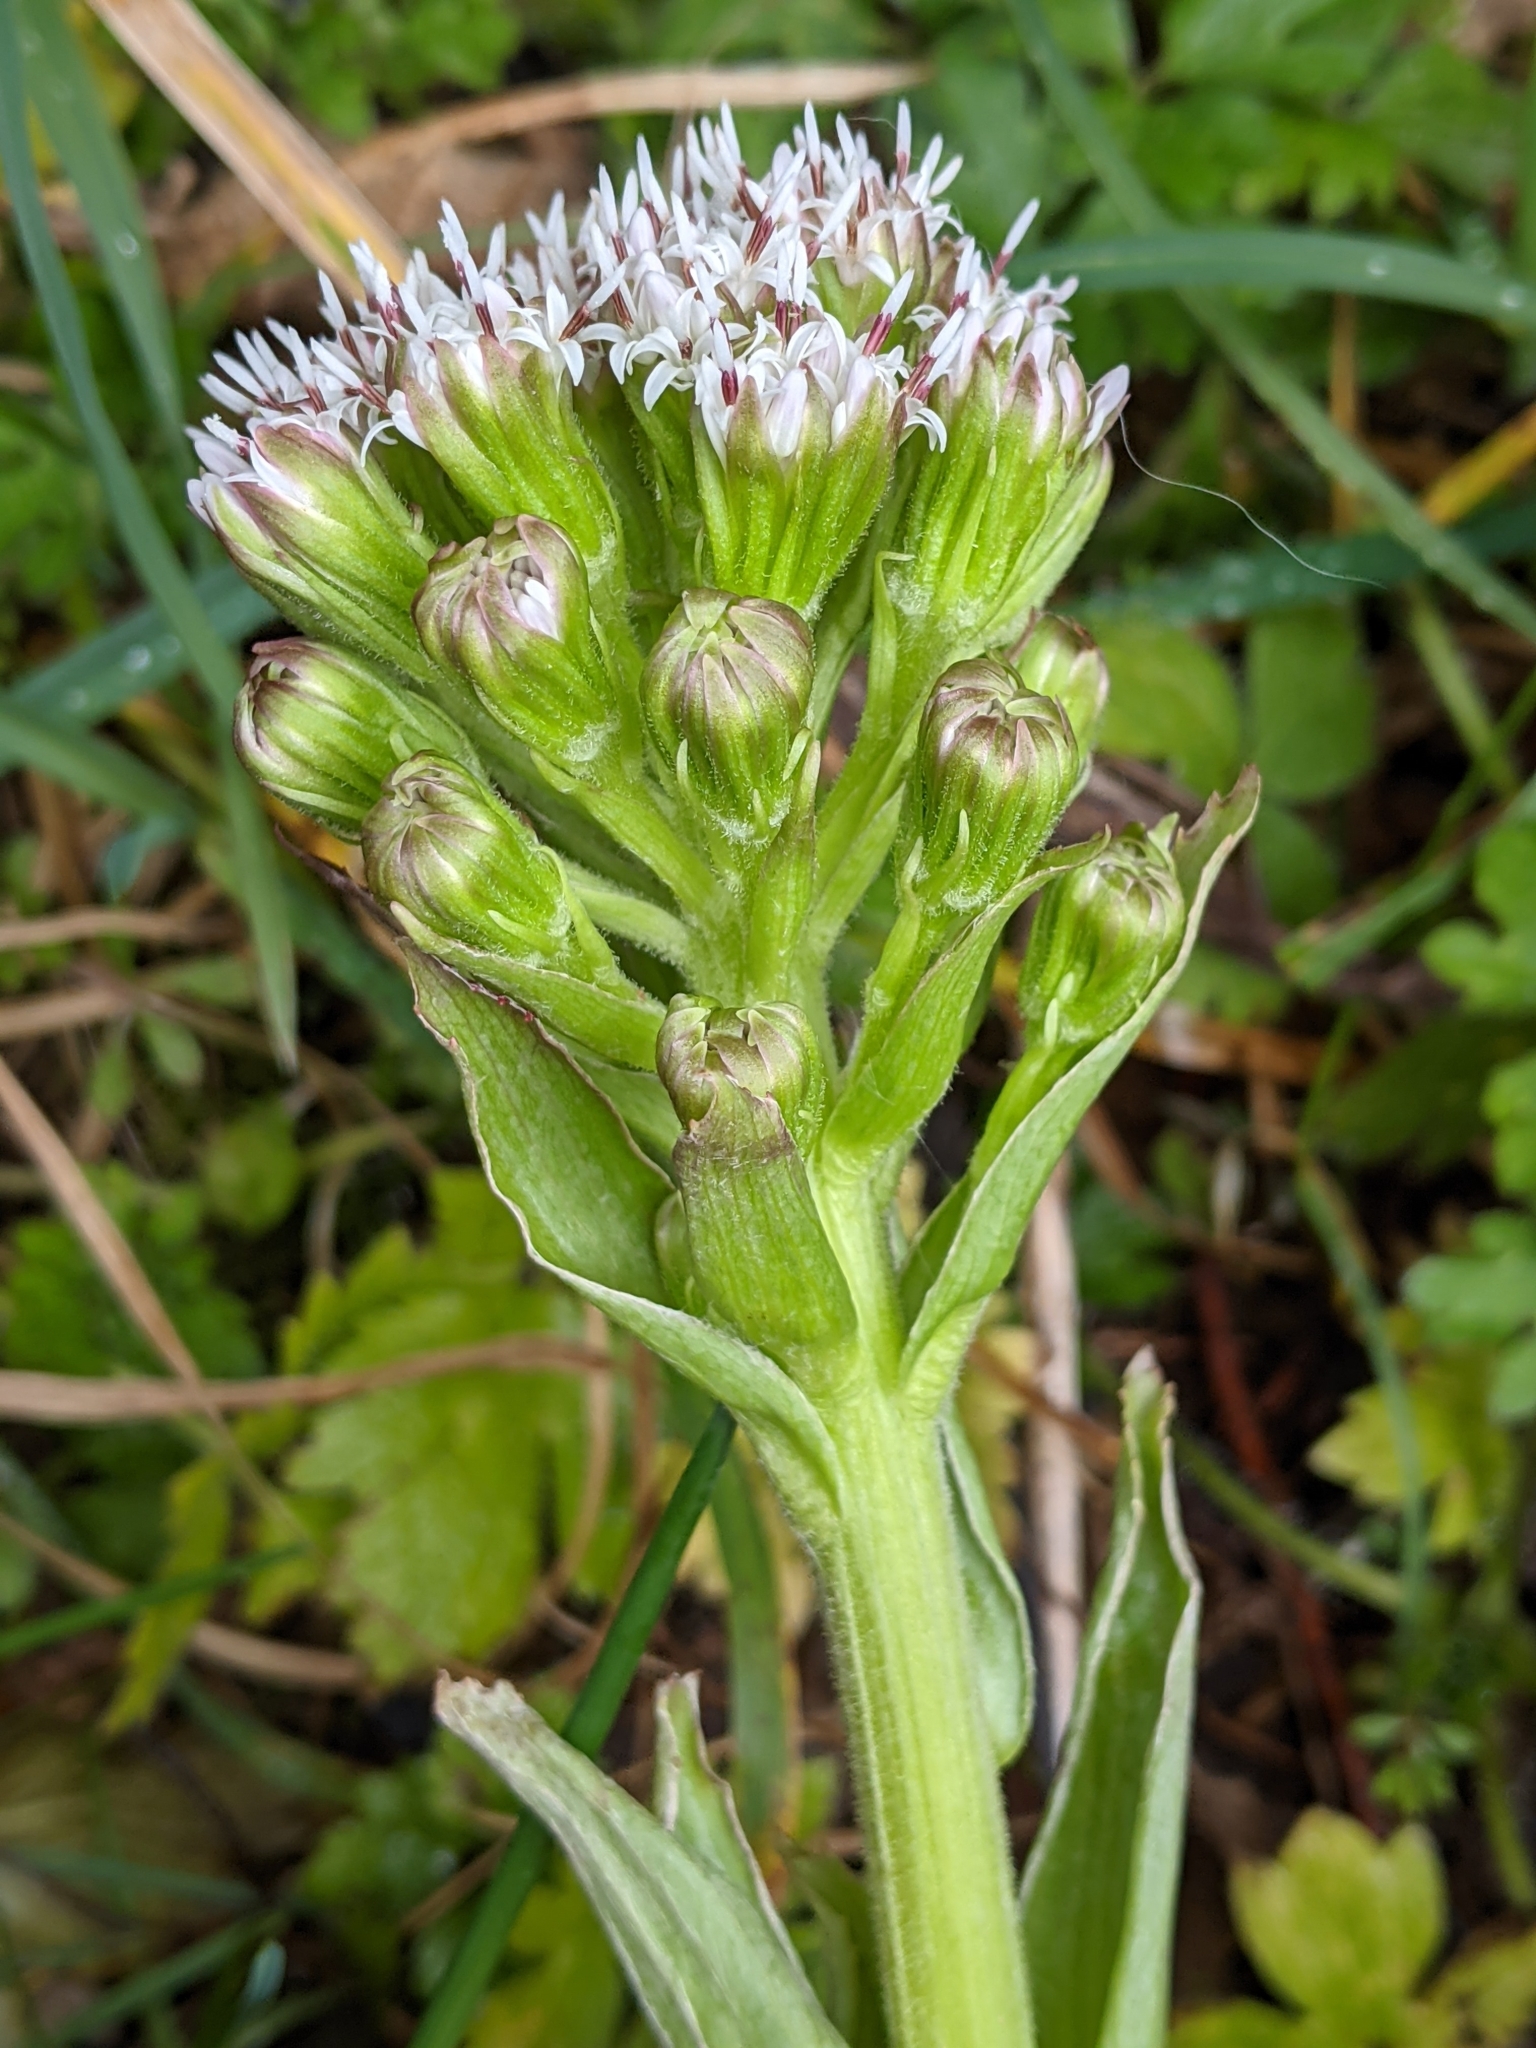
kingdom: Plantae
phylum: Tracheophyta
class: Magnoliopsida
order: Asterales
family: Asteraceae
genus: Petasites
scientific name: Petasites frigidus
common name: Arctic butterbur
